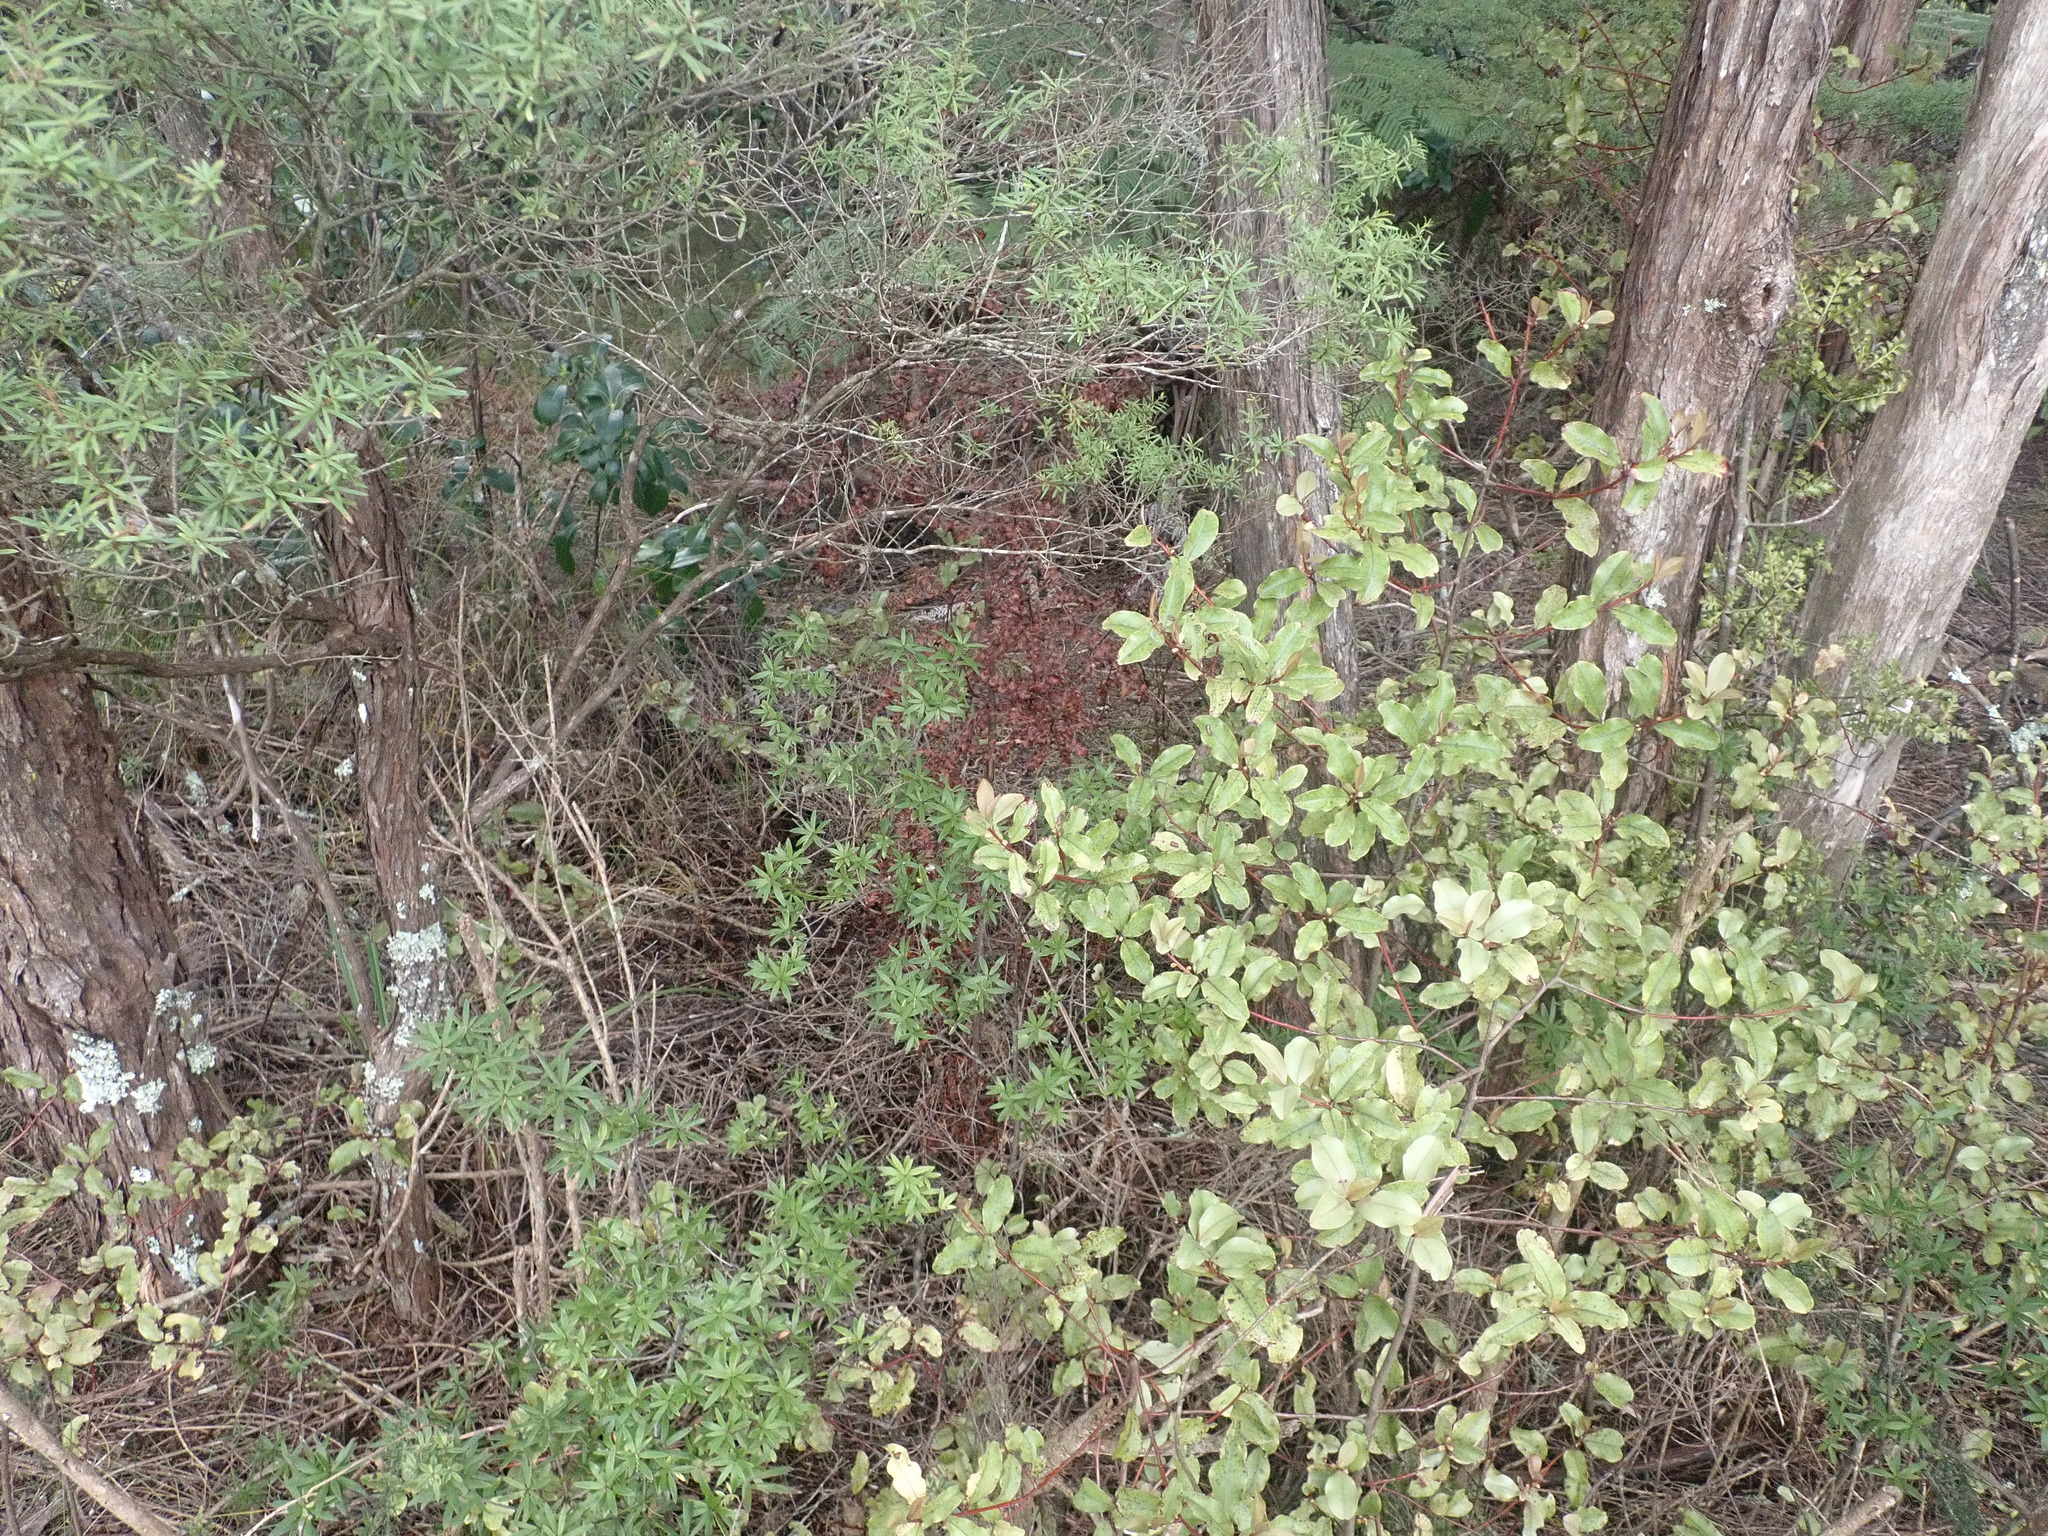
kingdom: Plantae
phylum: Tracheophyta
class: Pinopsida
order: Pinales
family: Phyllocladaceae
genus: Phyllocladus
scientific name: Phyllocladus trichomanoides
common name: Celery pine
